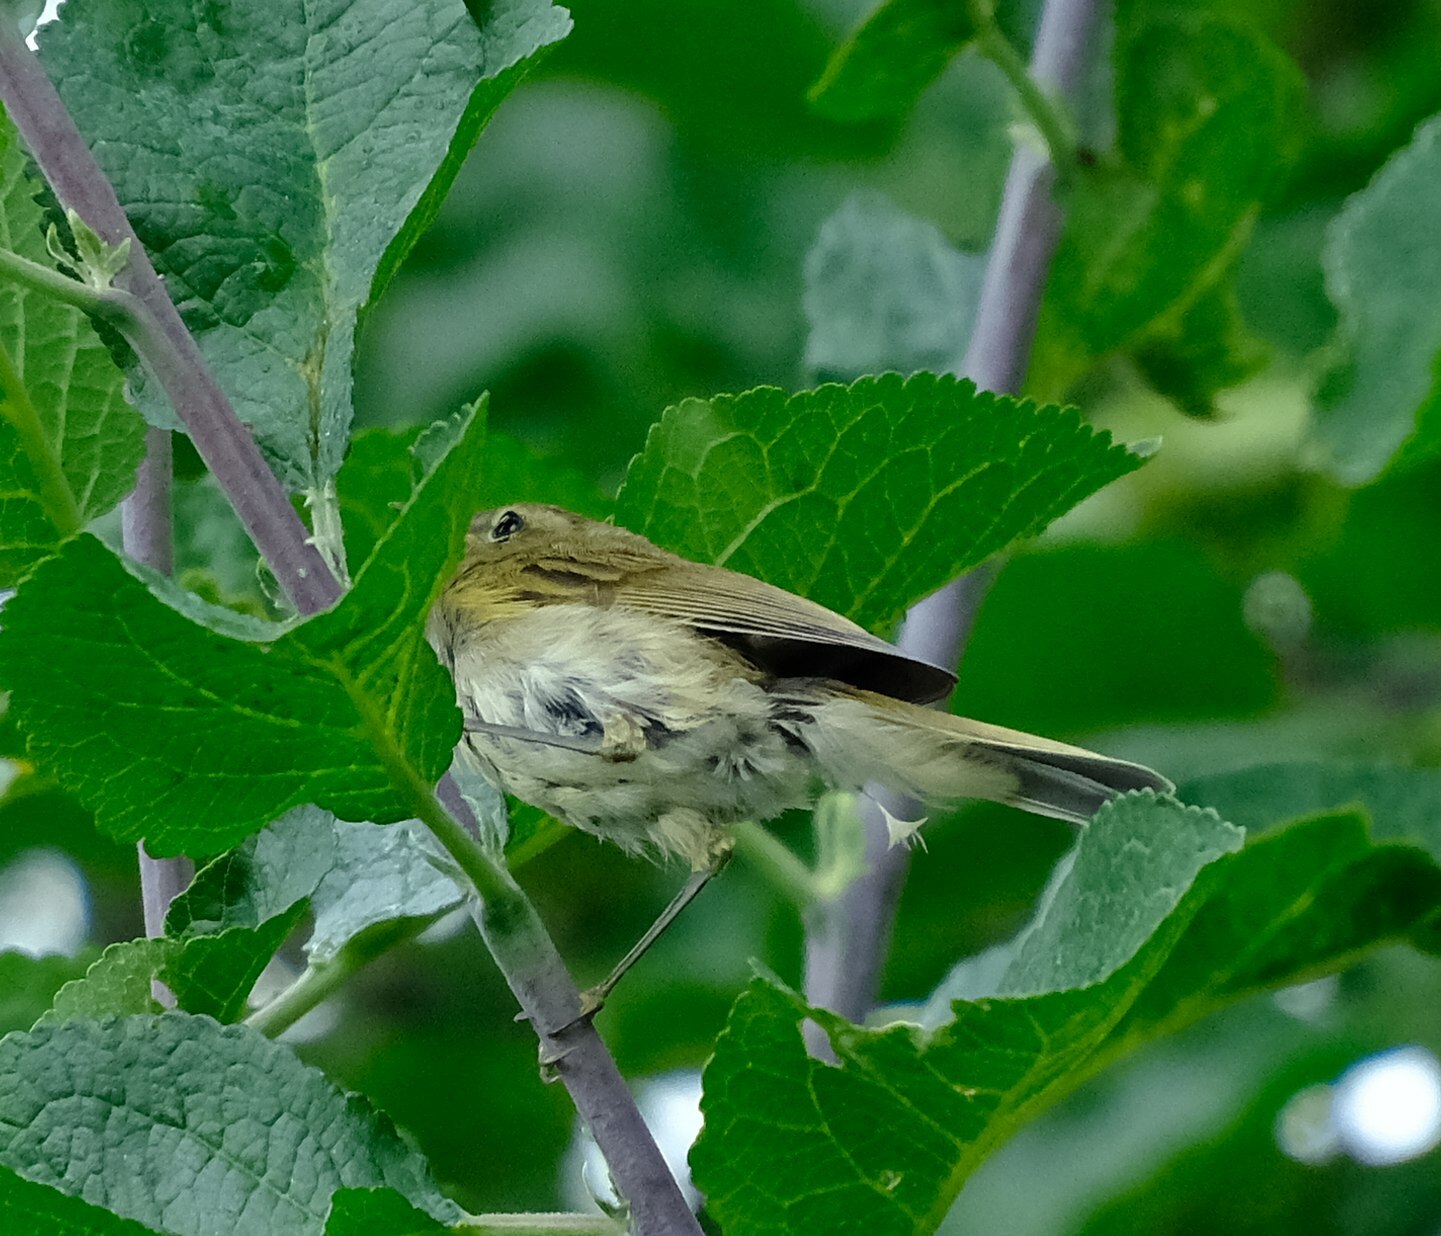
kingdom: Animalia
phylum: Chordata
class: Aves
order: Passeriformes
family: Phylloscopidae
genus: Phylloscopus
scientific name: Phylloscopus collybita
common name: Common chiffchaff
